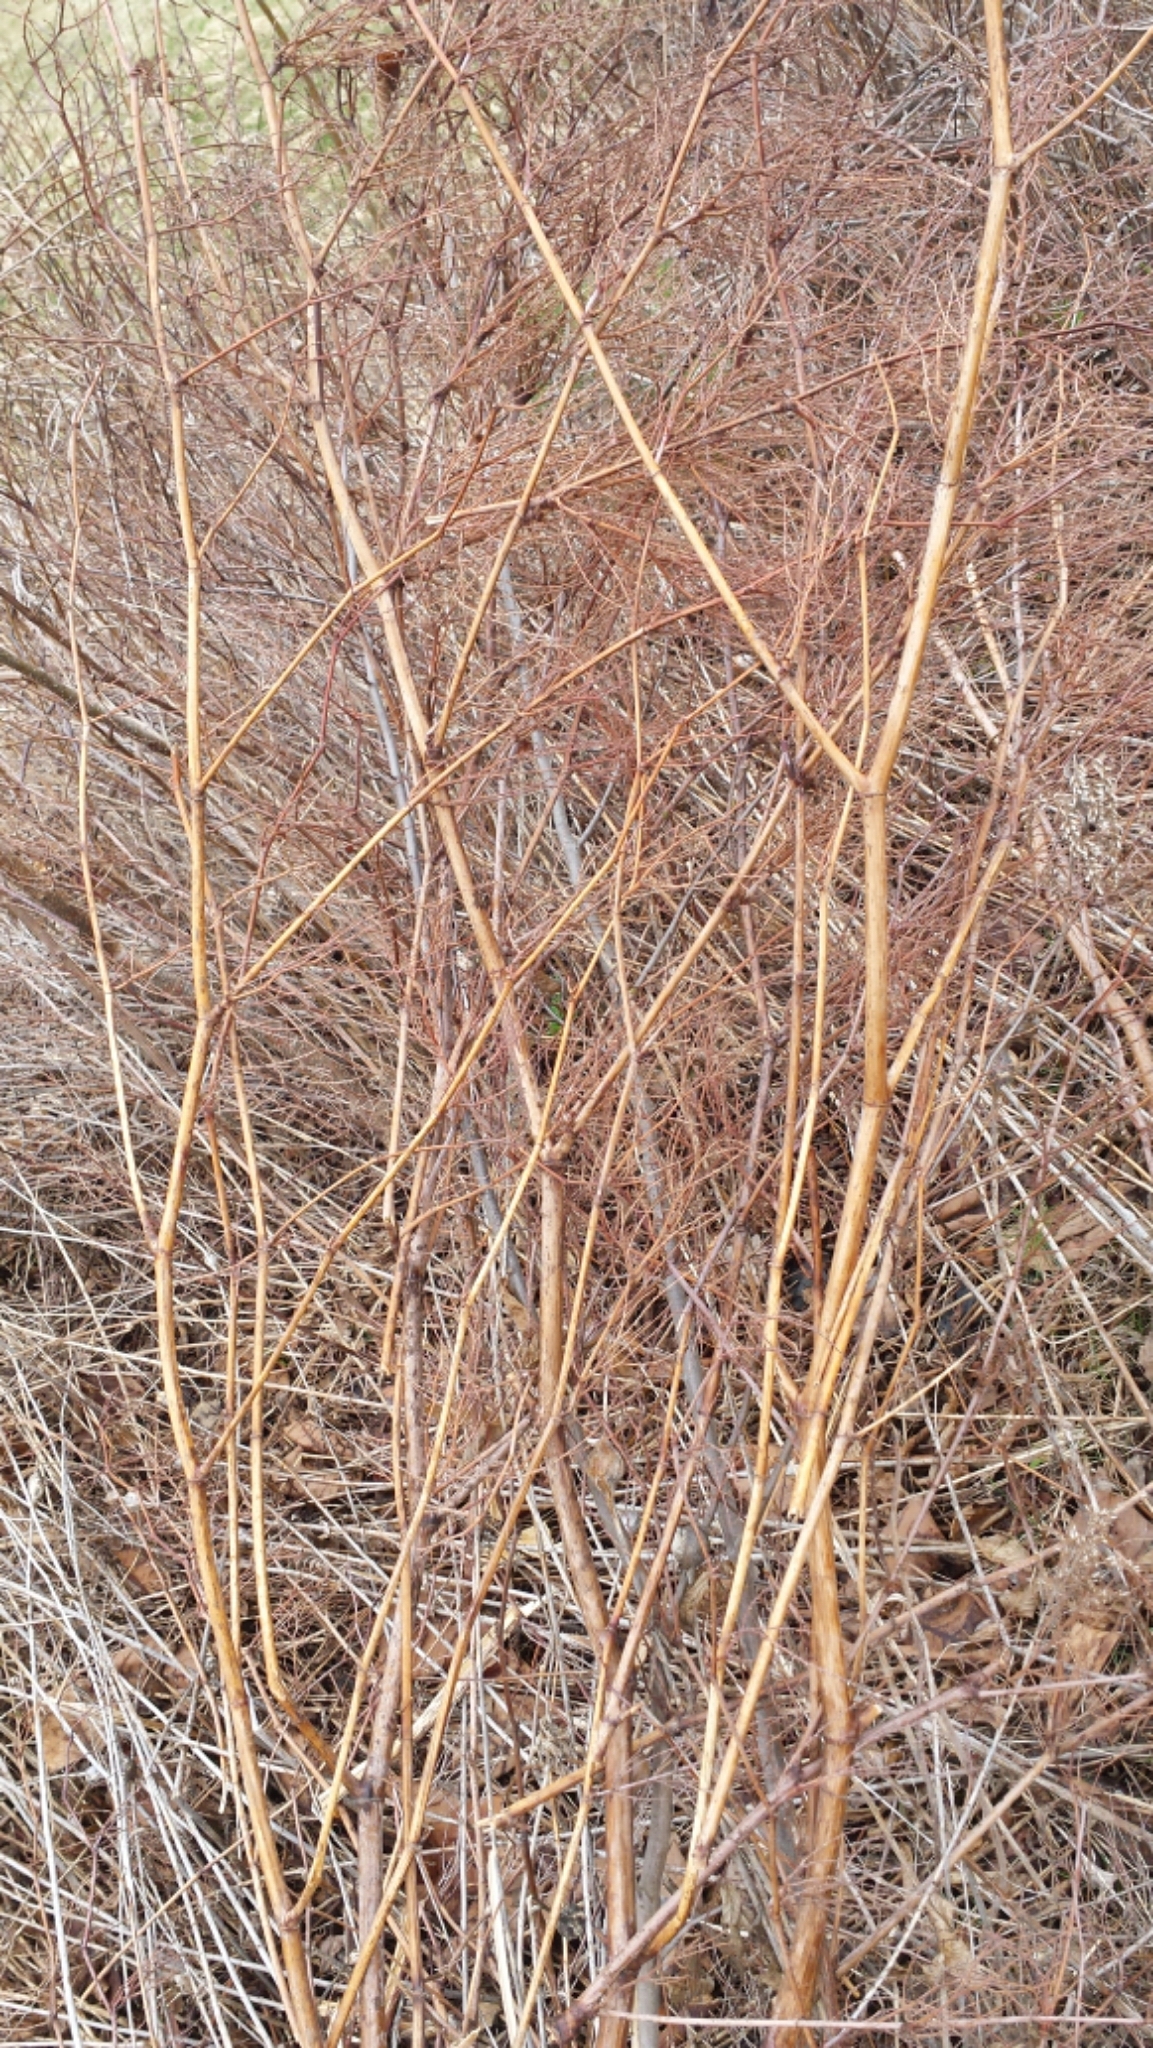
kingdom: Plantae
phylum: Tracheophyta
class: Magnoliopsida
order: Caryophyllales
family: Polygonaceae
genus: Reynoutria
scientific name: Reynoutria japonica
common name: Japanese knotweed
